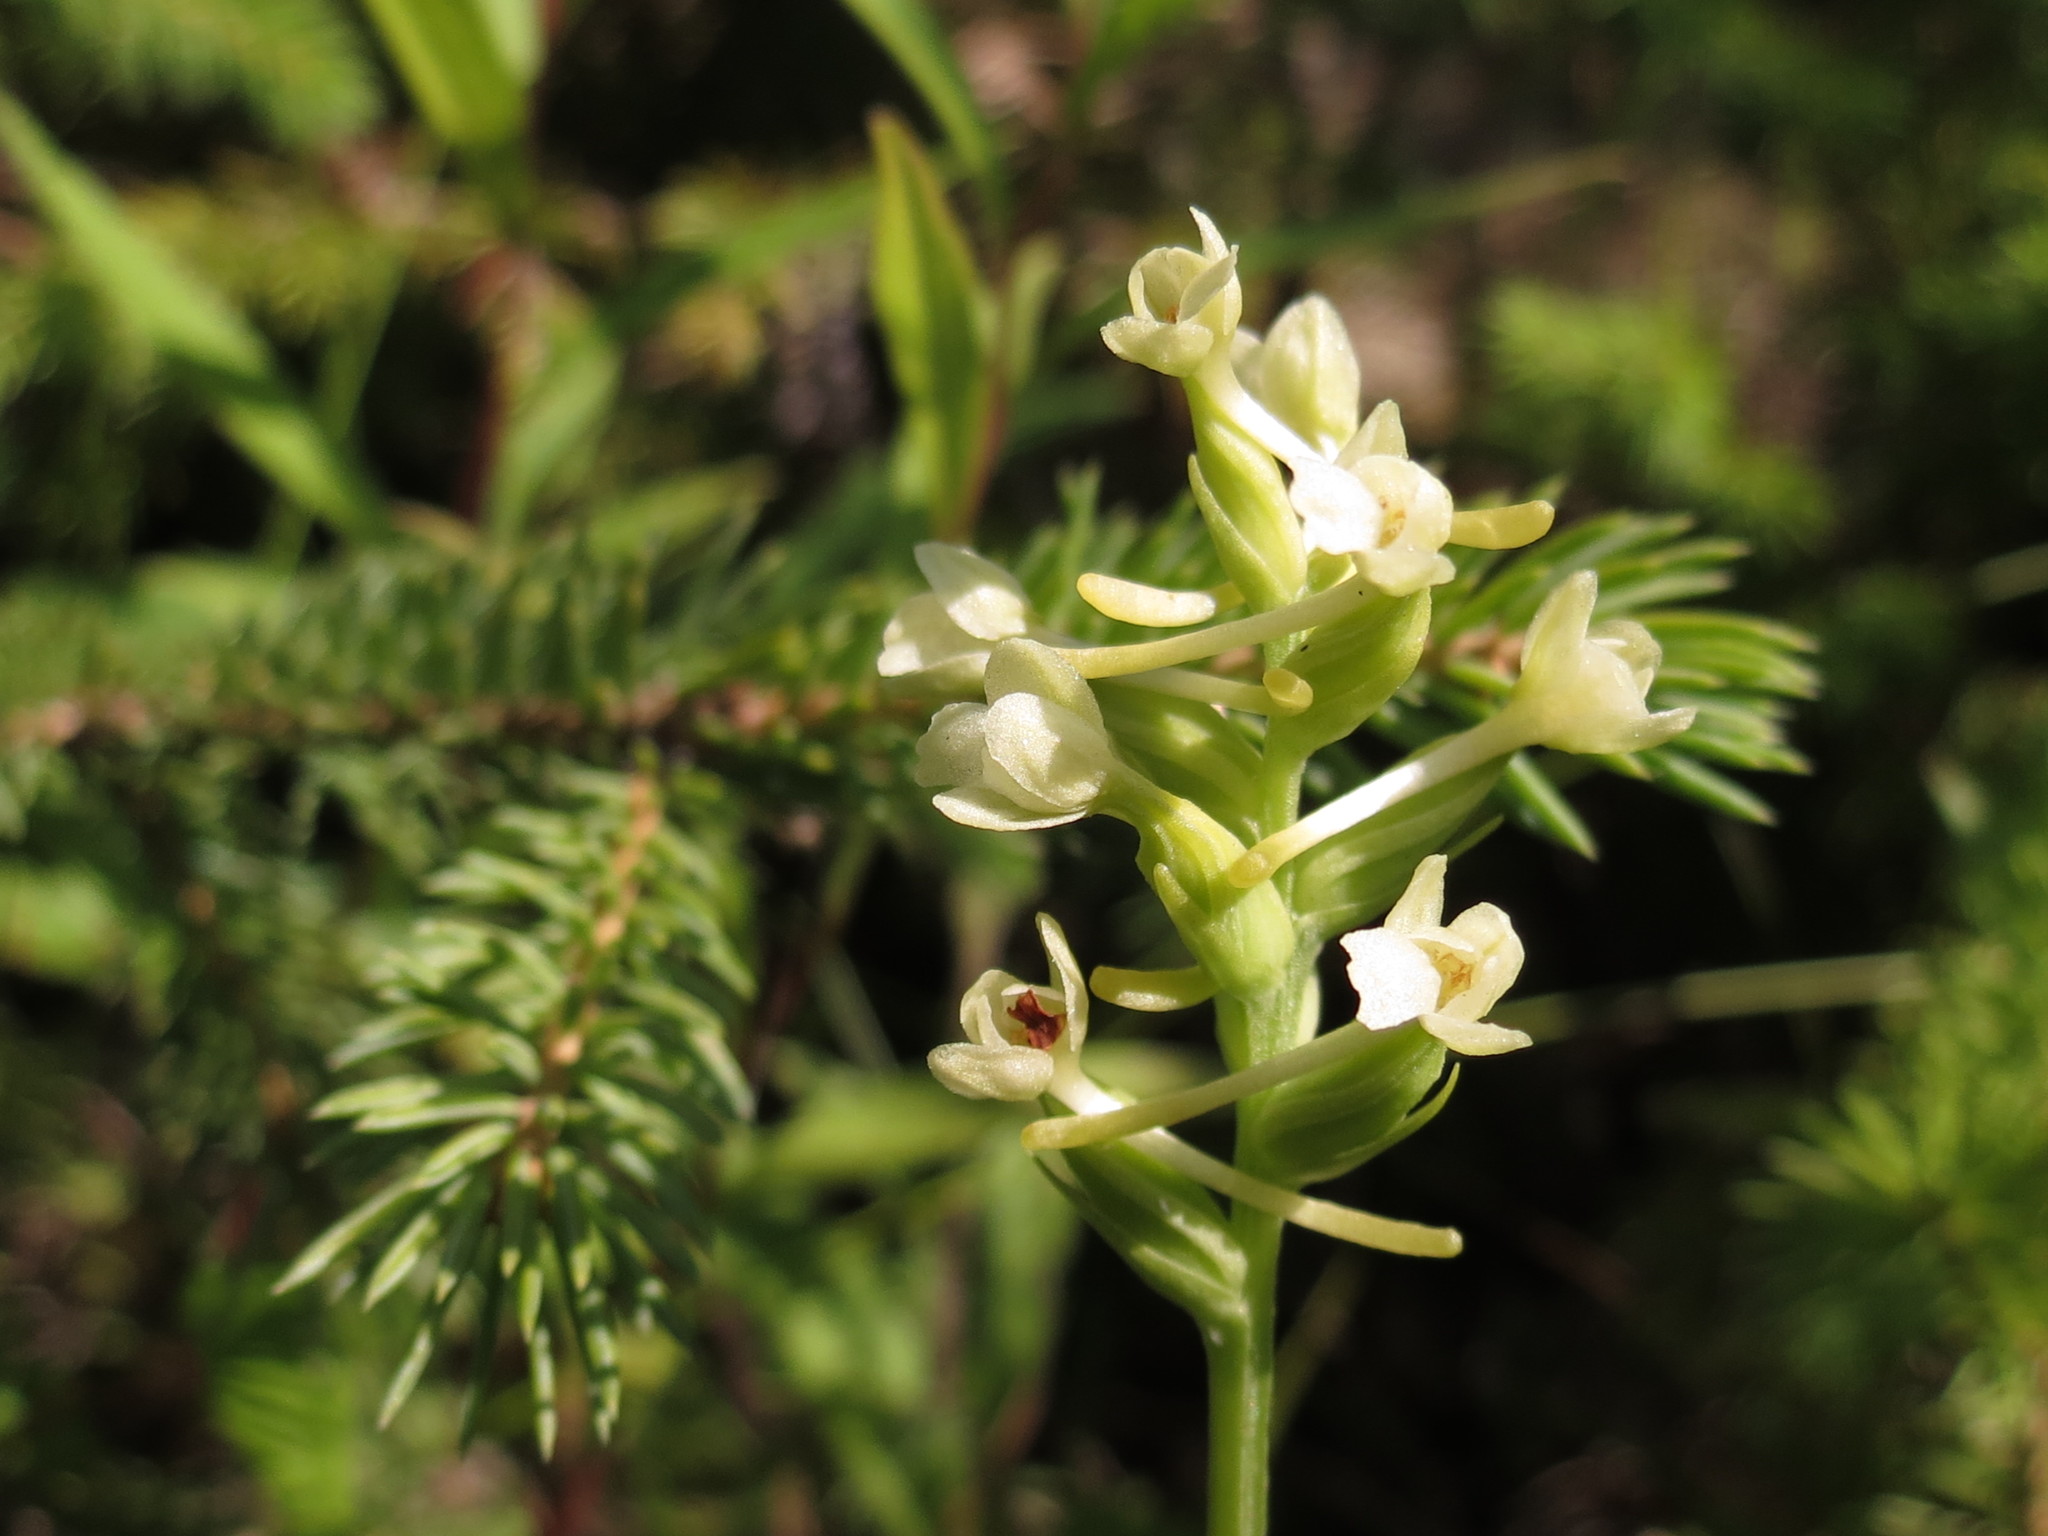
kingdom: Plantae
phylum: Tracheophyta
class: Liliopsida
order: Asparagales
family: Orchidaceae
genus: Platanthera
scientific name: Platanthera clavellata
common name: Club-spur orchid
